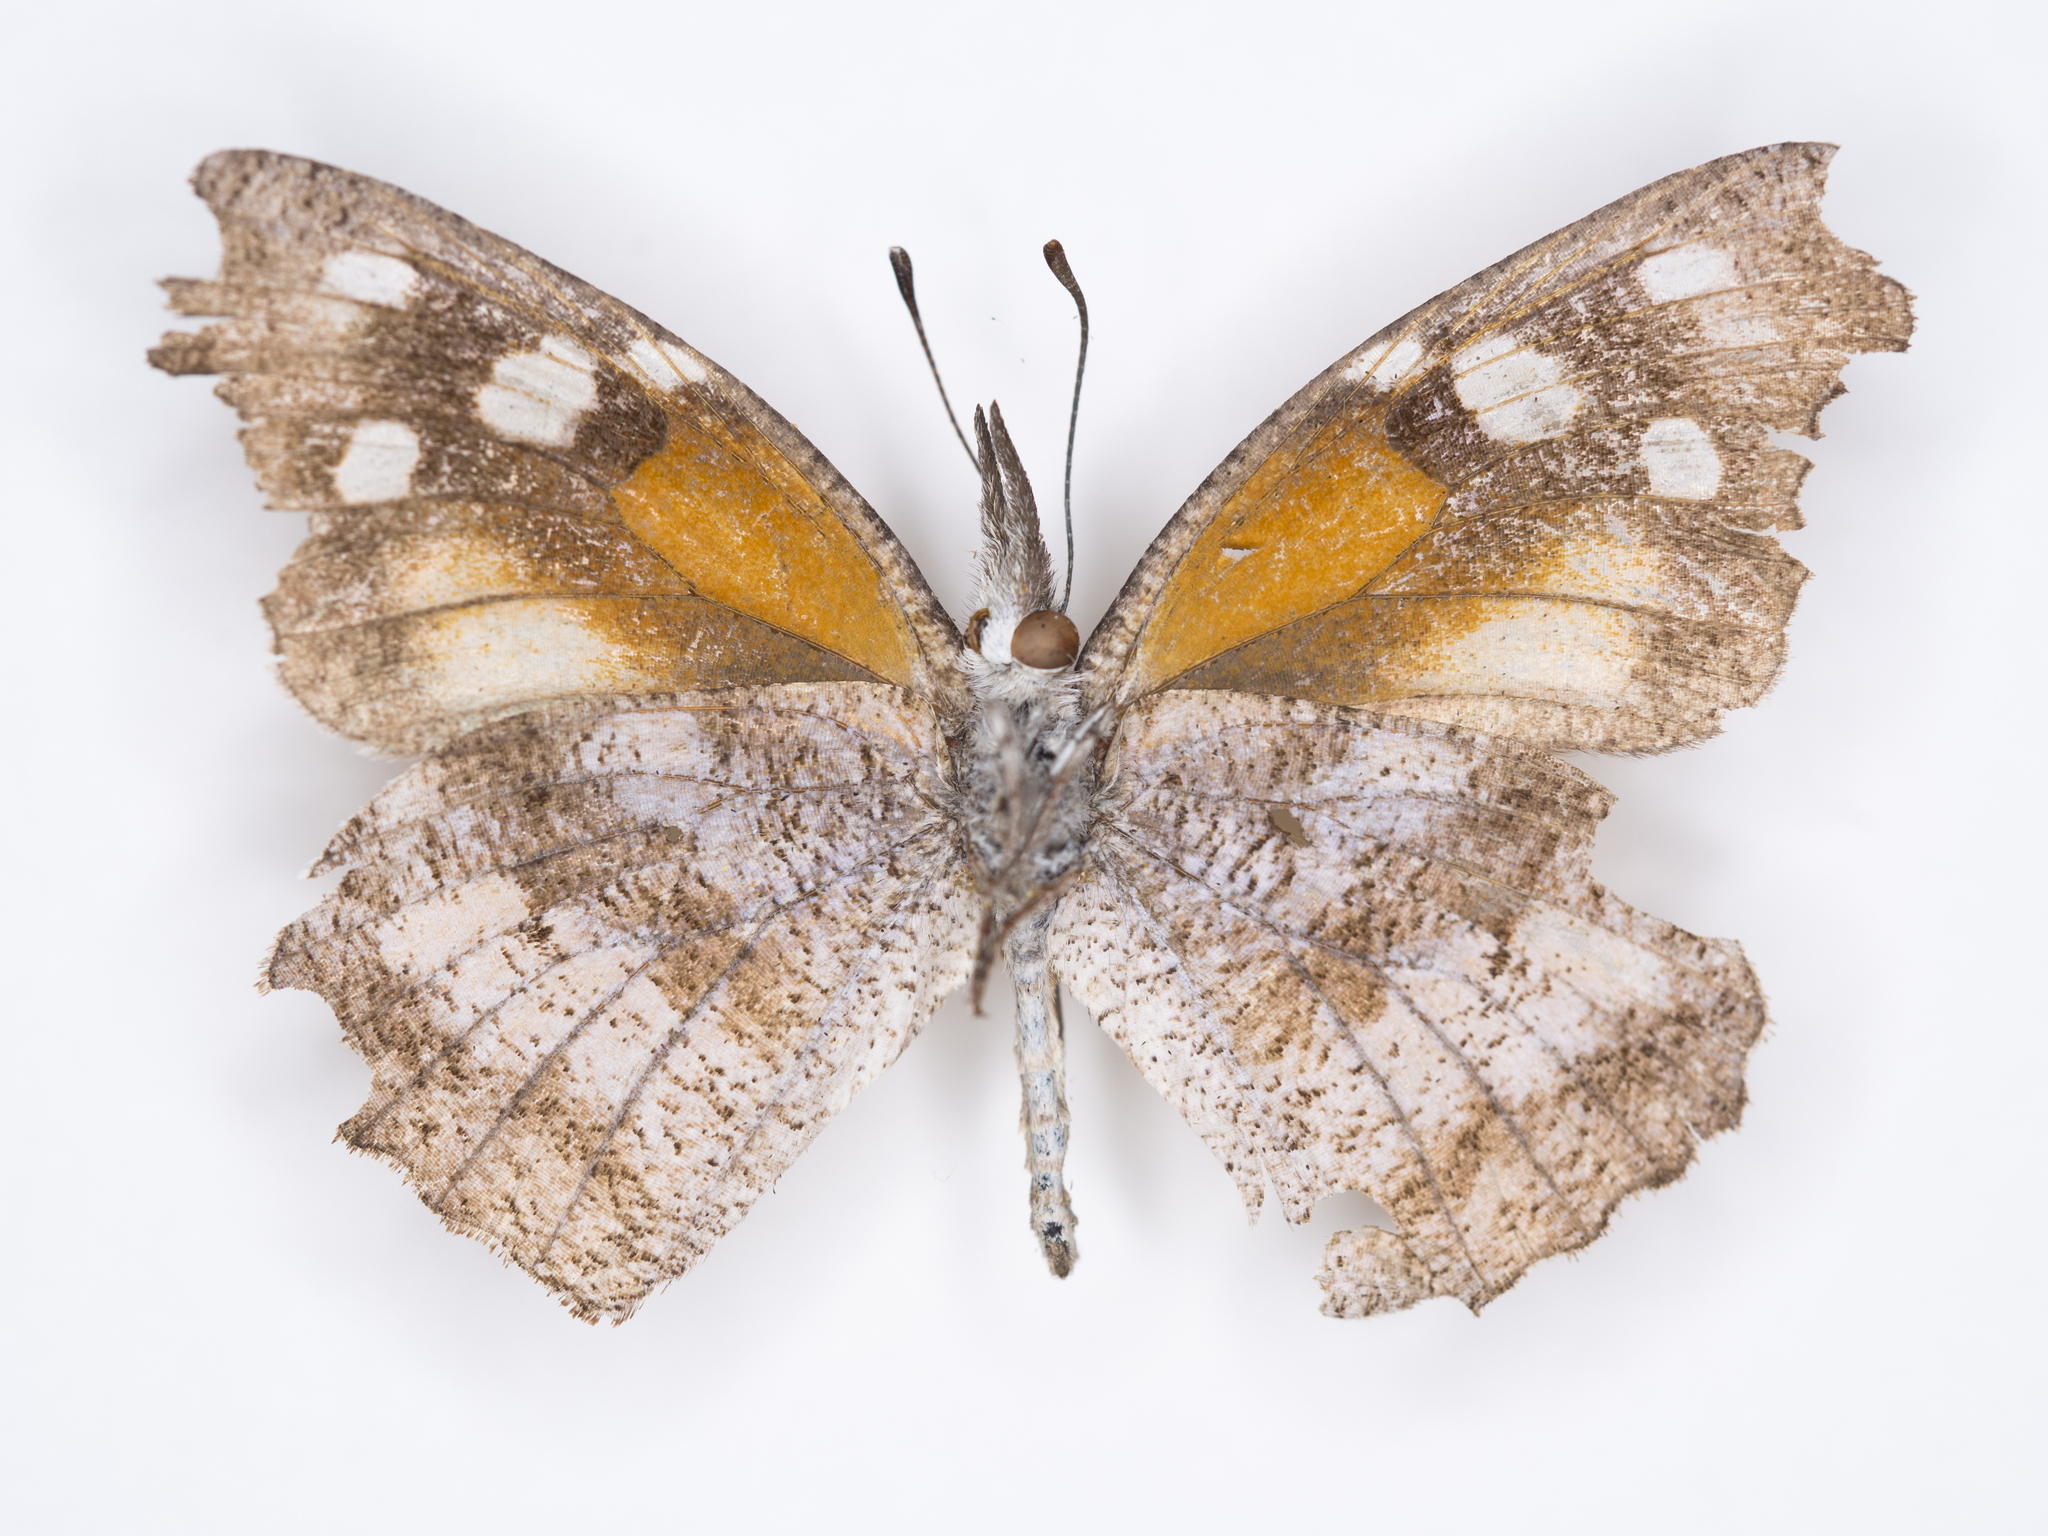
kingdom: Animalia
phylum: Arthropoda
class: Insecta
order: Lepidoptera
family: Nymphalidae
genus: Libytheana
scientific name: Libytheana carinenta
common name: American snout
